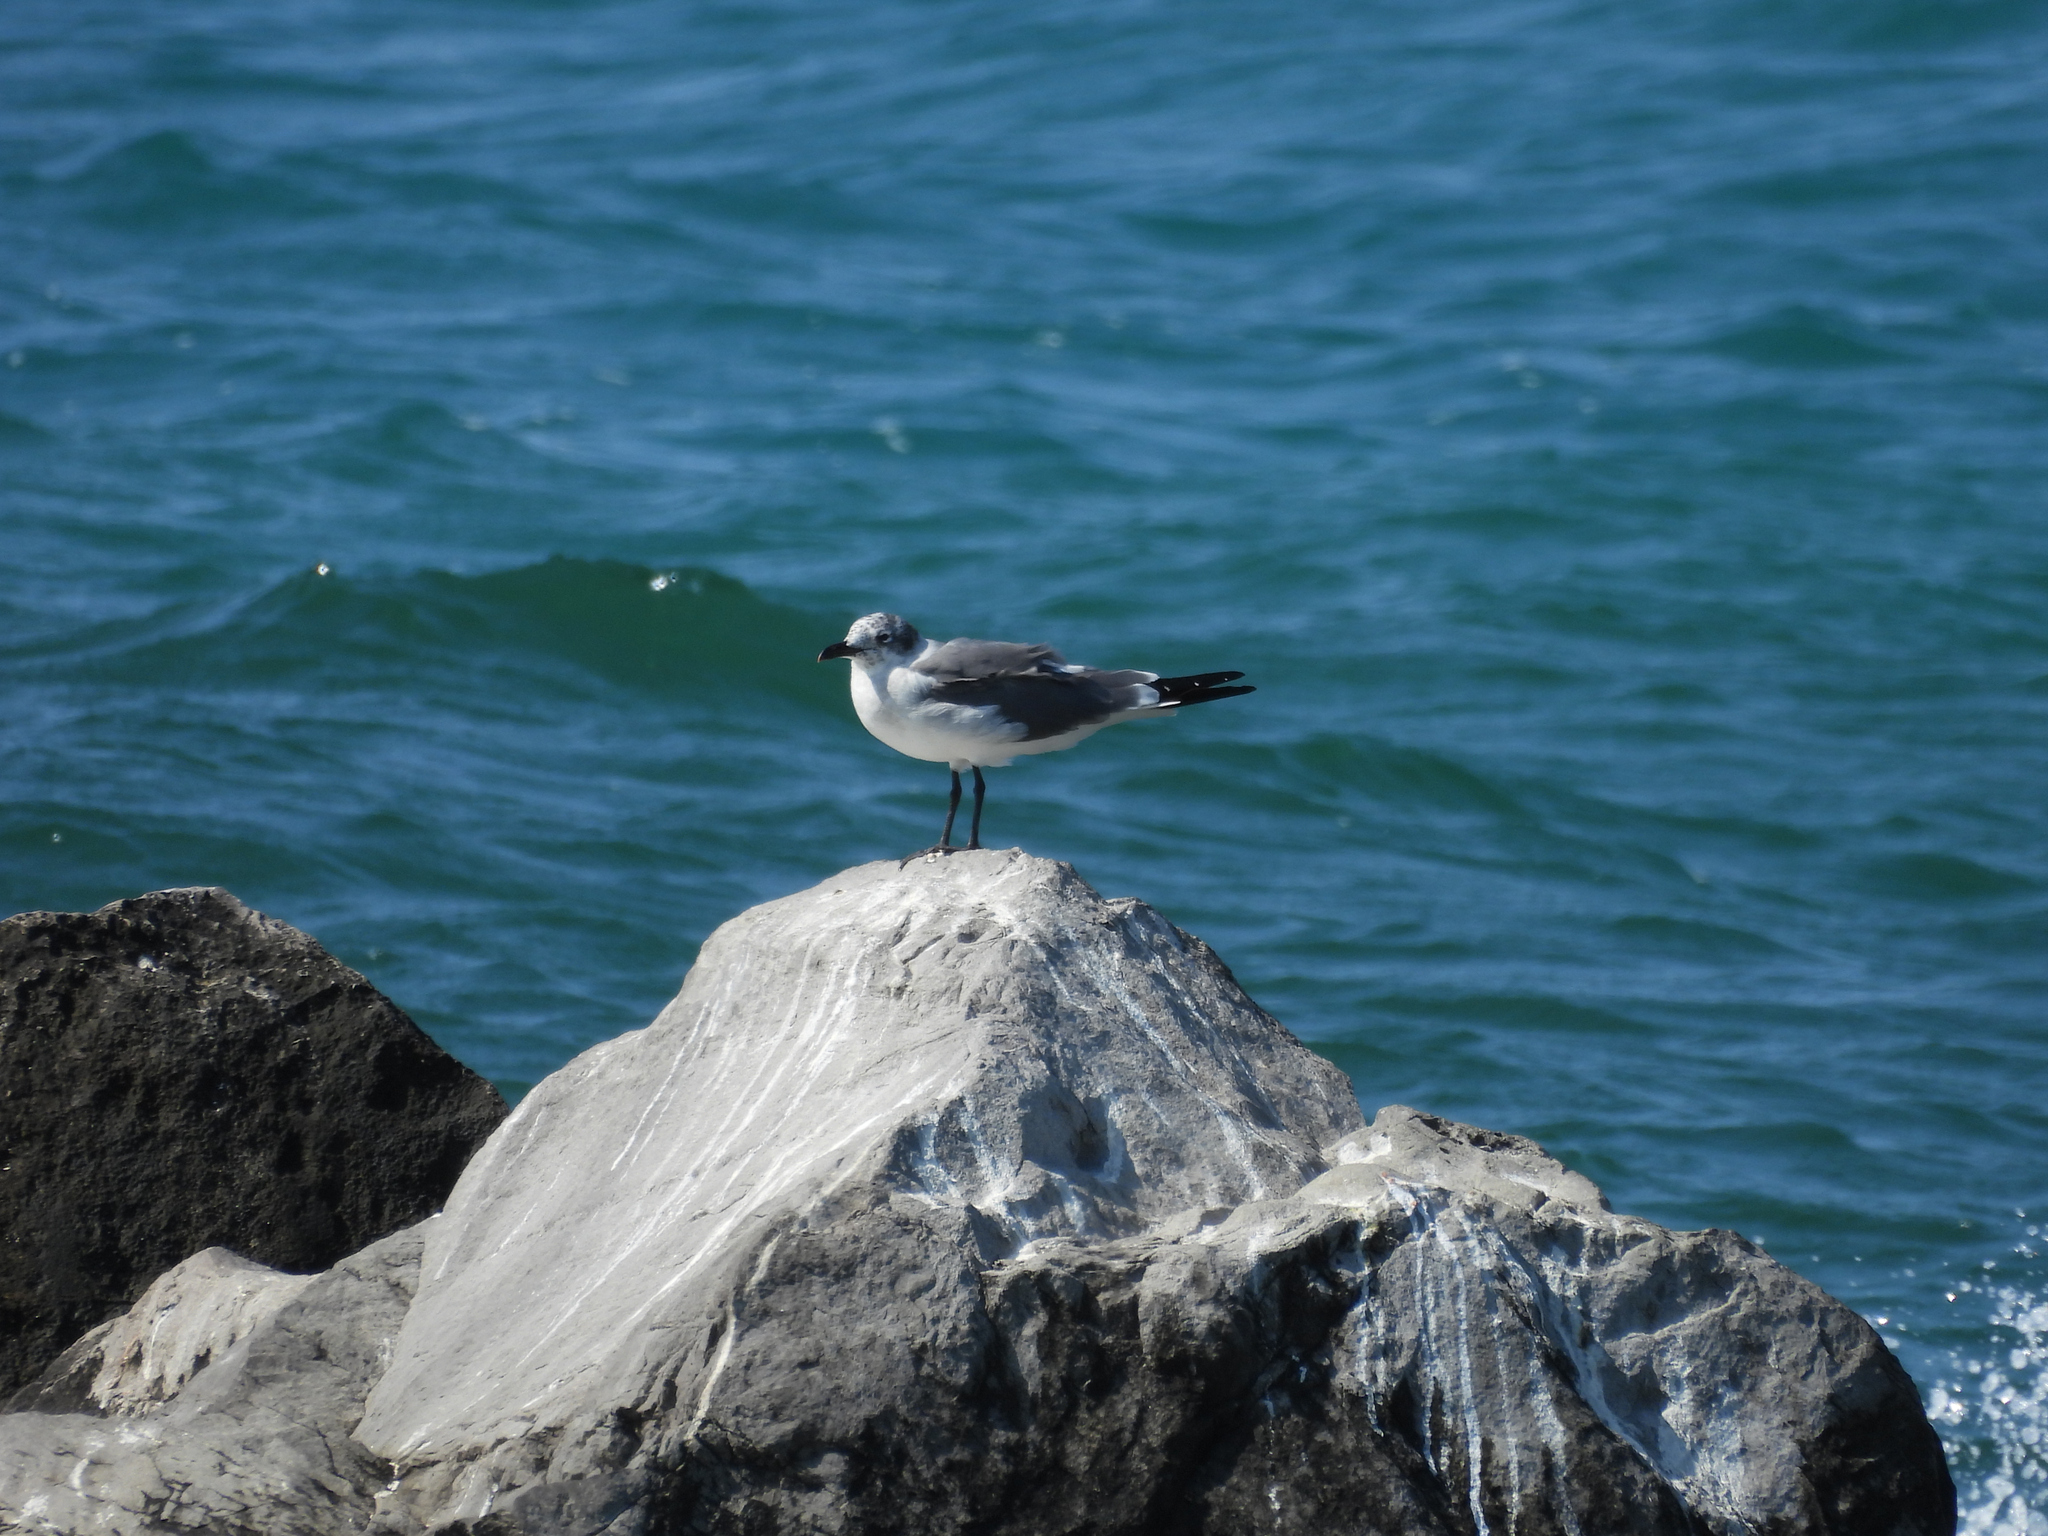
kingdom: Animalia
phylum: Chordata
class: Aves
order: Charadriiformes
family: Laridae
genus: Leucophaeus
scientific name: Leucophaeus atricilla
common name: Laughing gull
